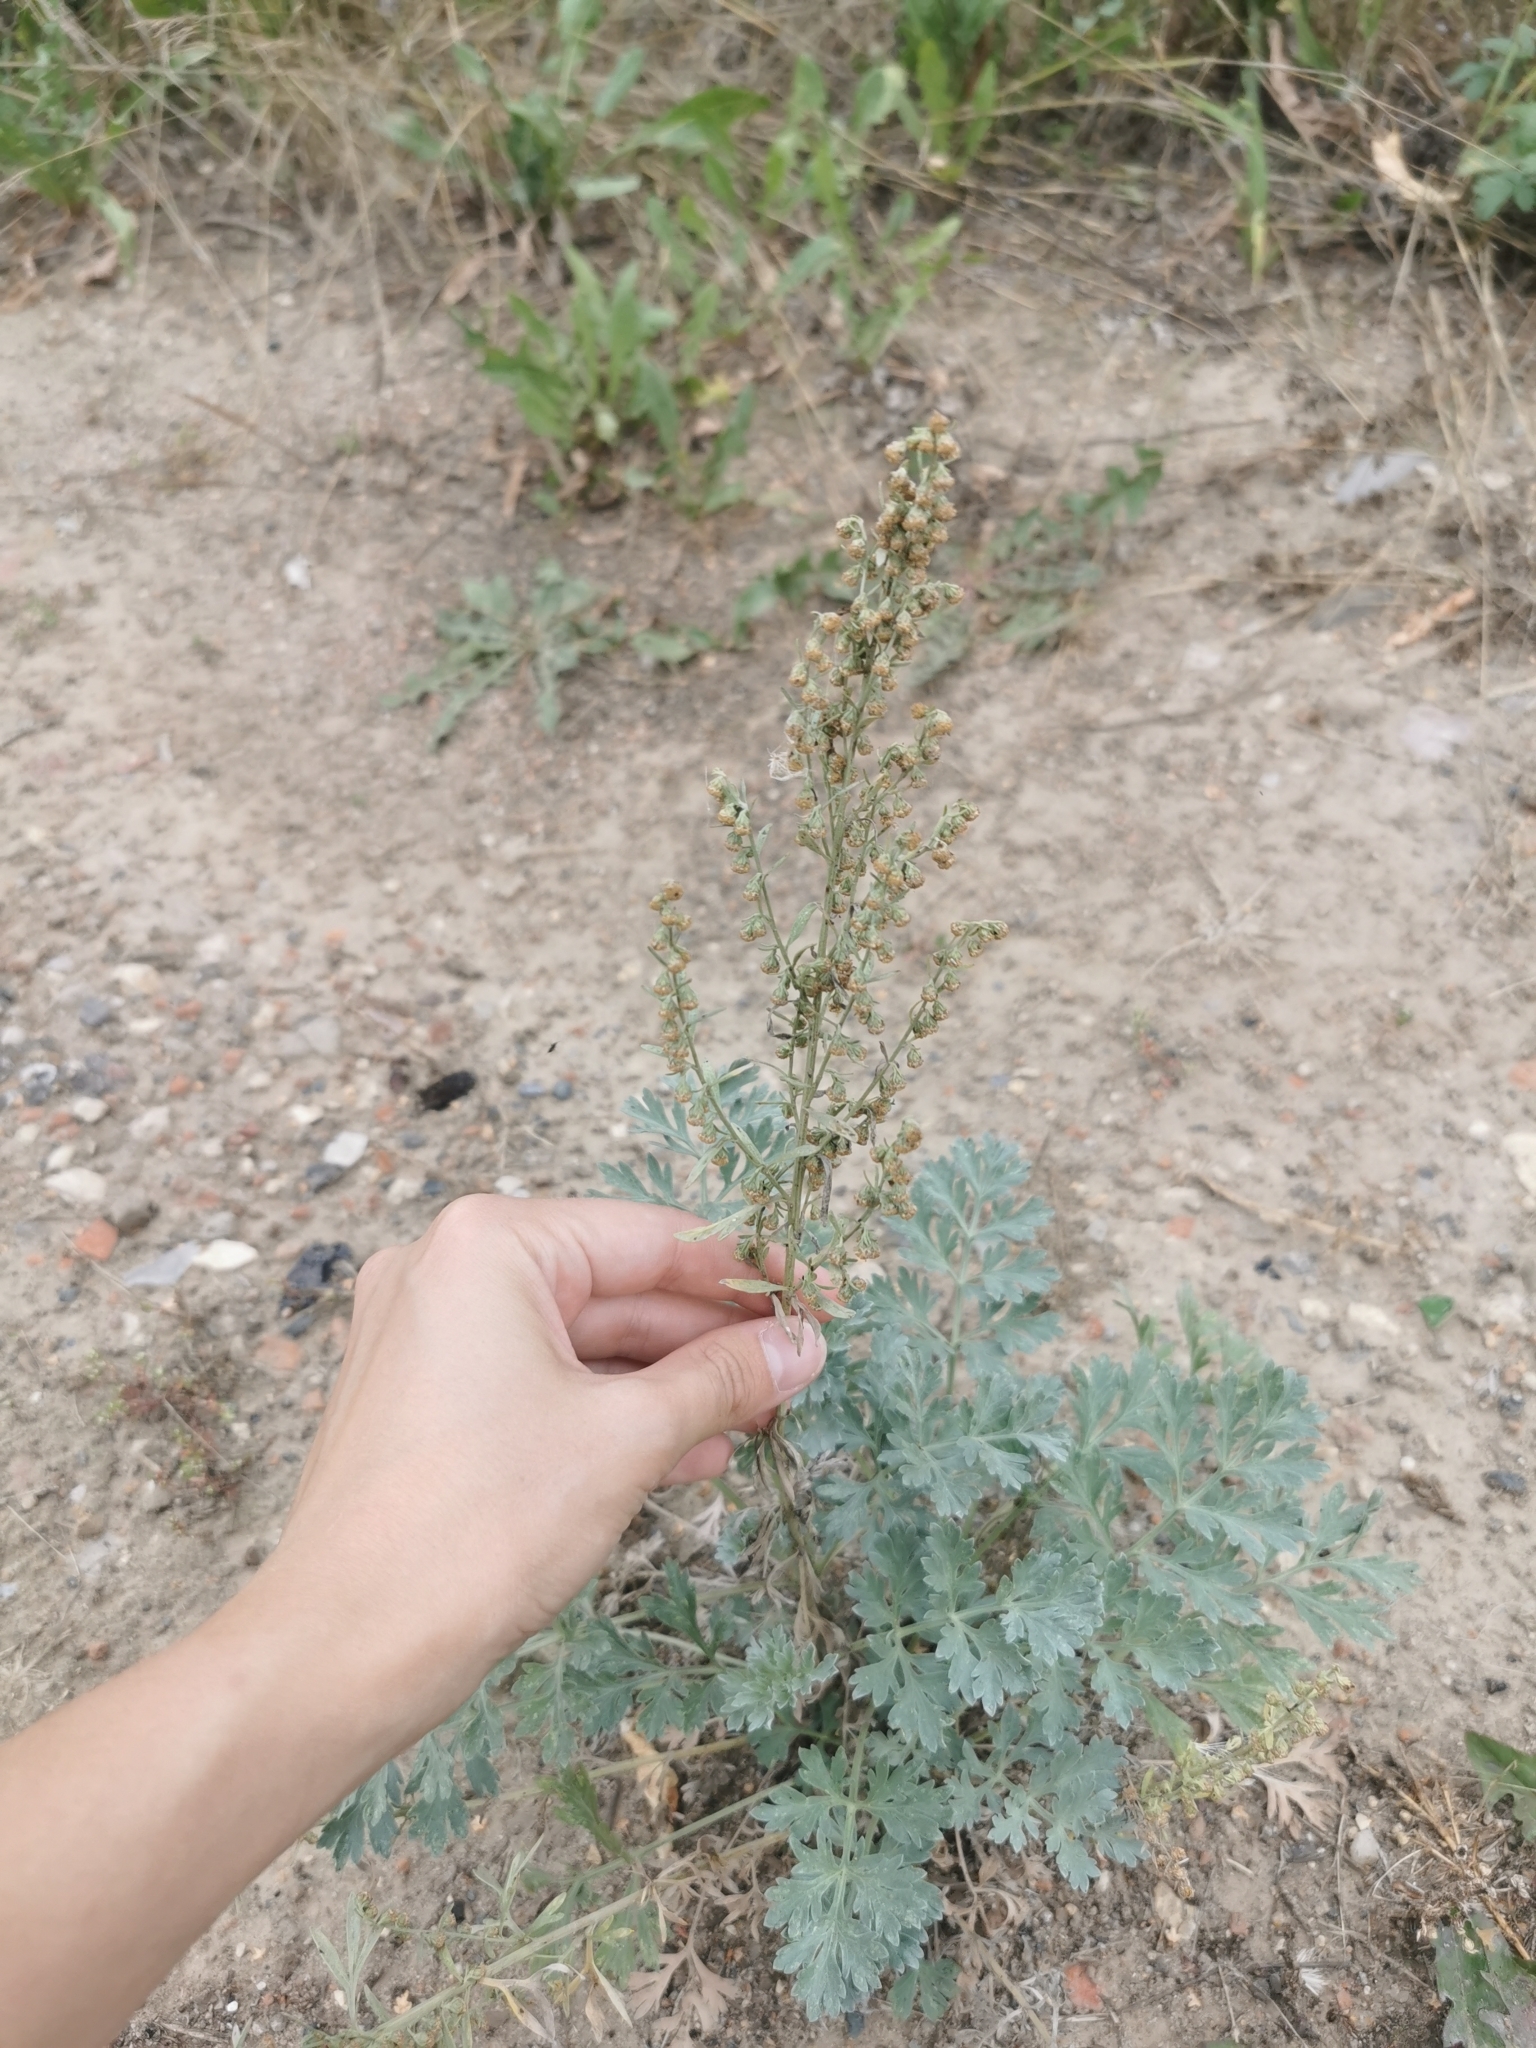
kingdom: Plantae
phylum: Tracheophyta
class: Magnoliopsida
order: Asterales
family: Asteraceae
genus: Artemisia
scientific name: Artemisia absinthium
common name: Wormwood
